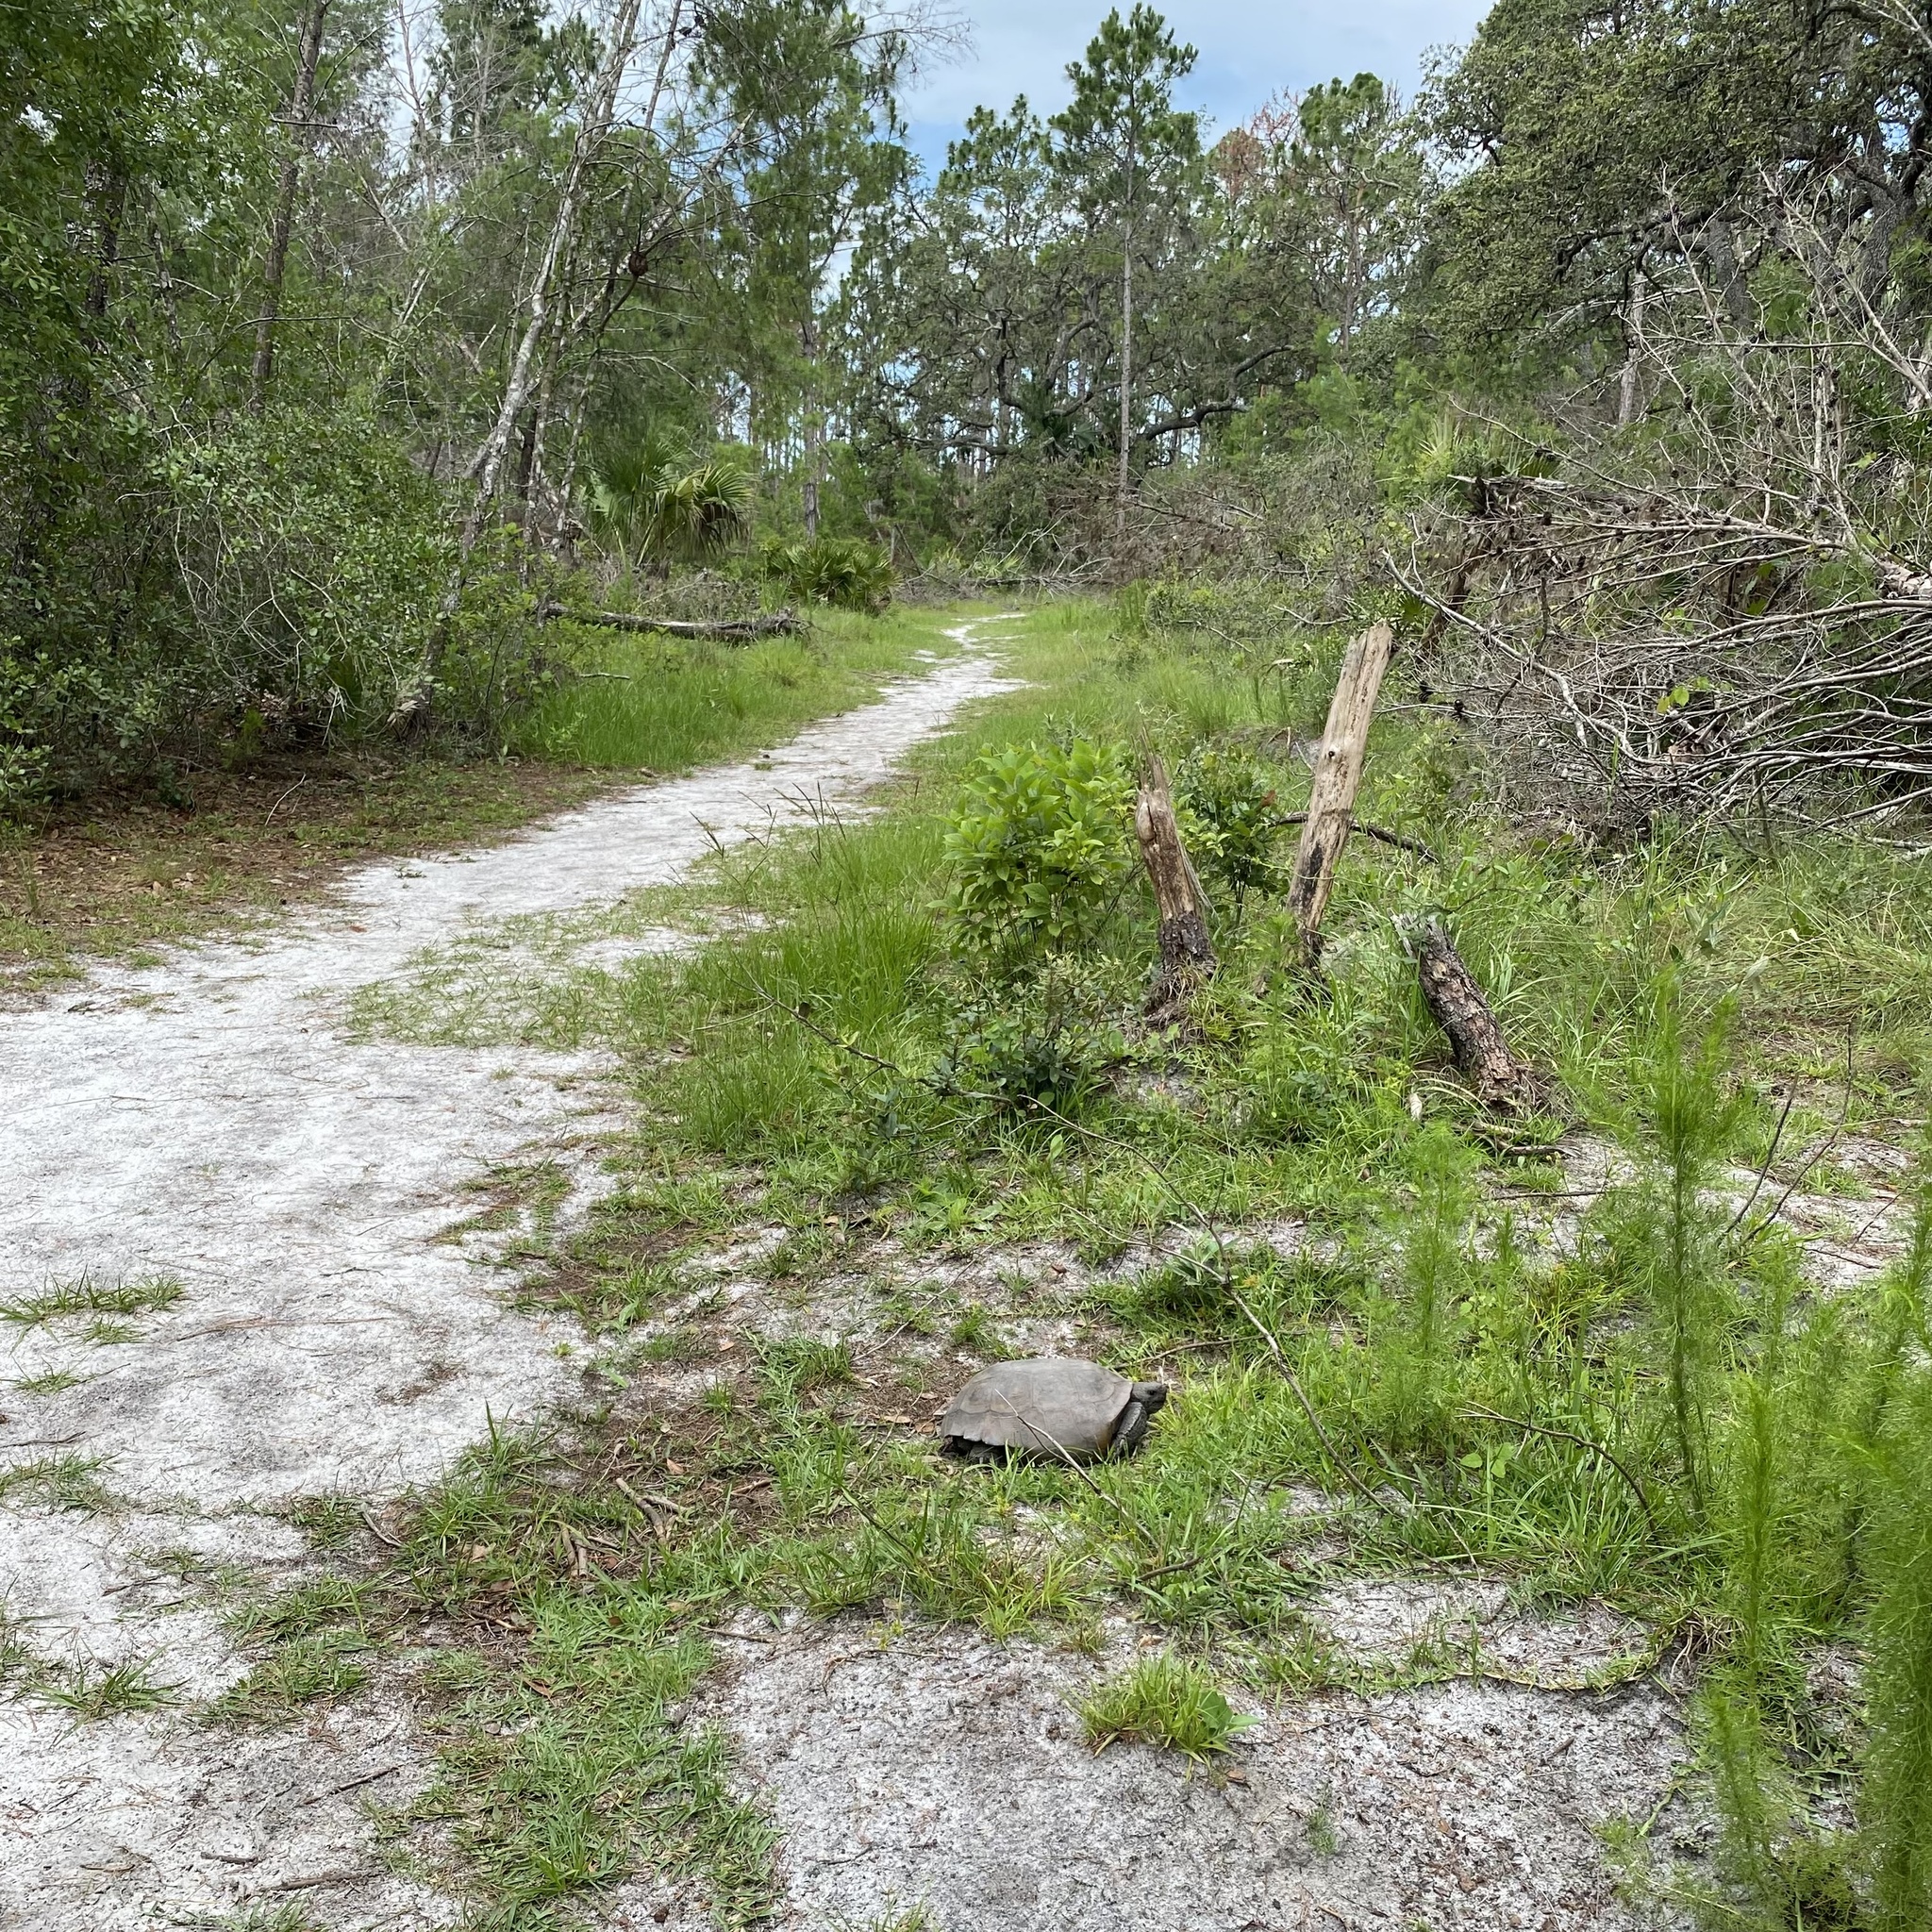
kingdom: Animalia
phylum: Chordata
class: Testudines
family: Testudinidae
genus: Gopherus
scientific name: Gopherus polyphemus
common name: Florida gopher tortoise
